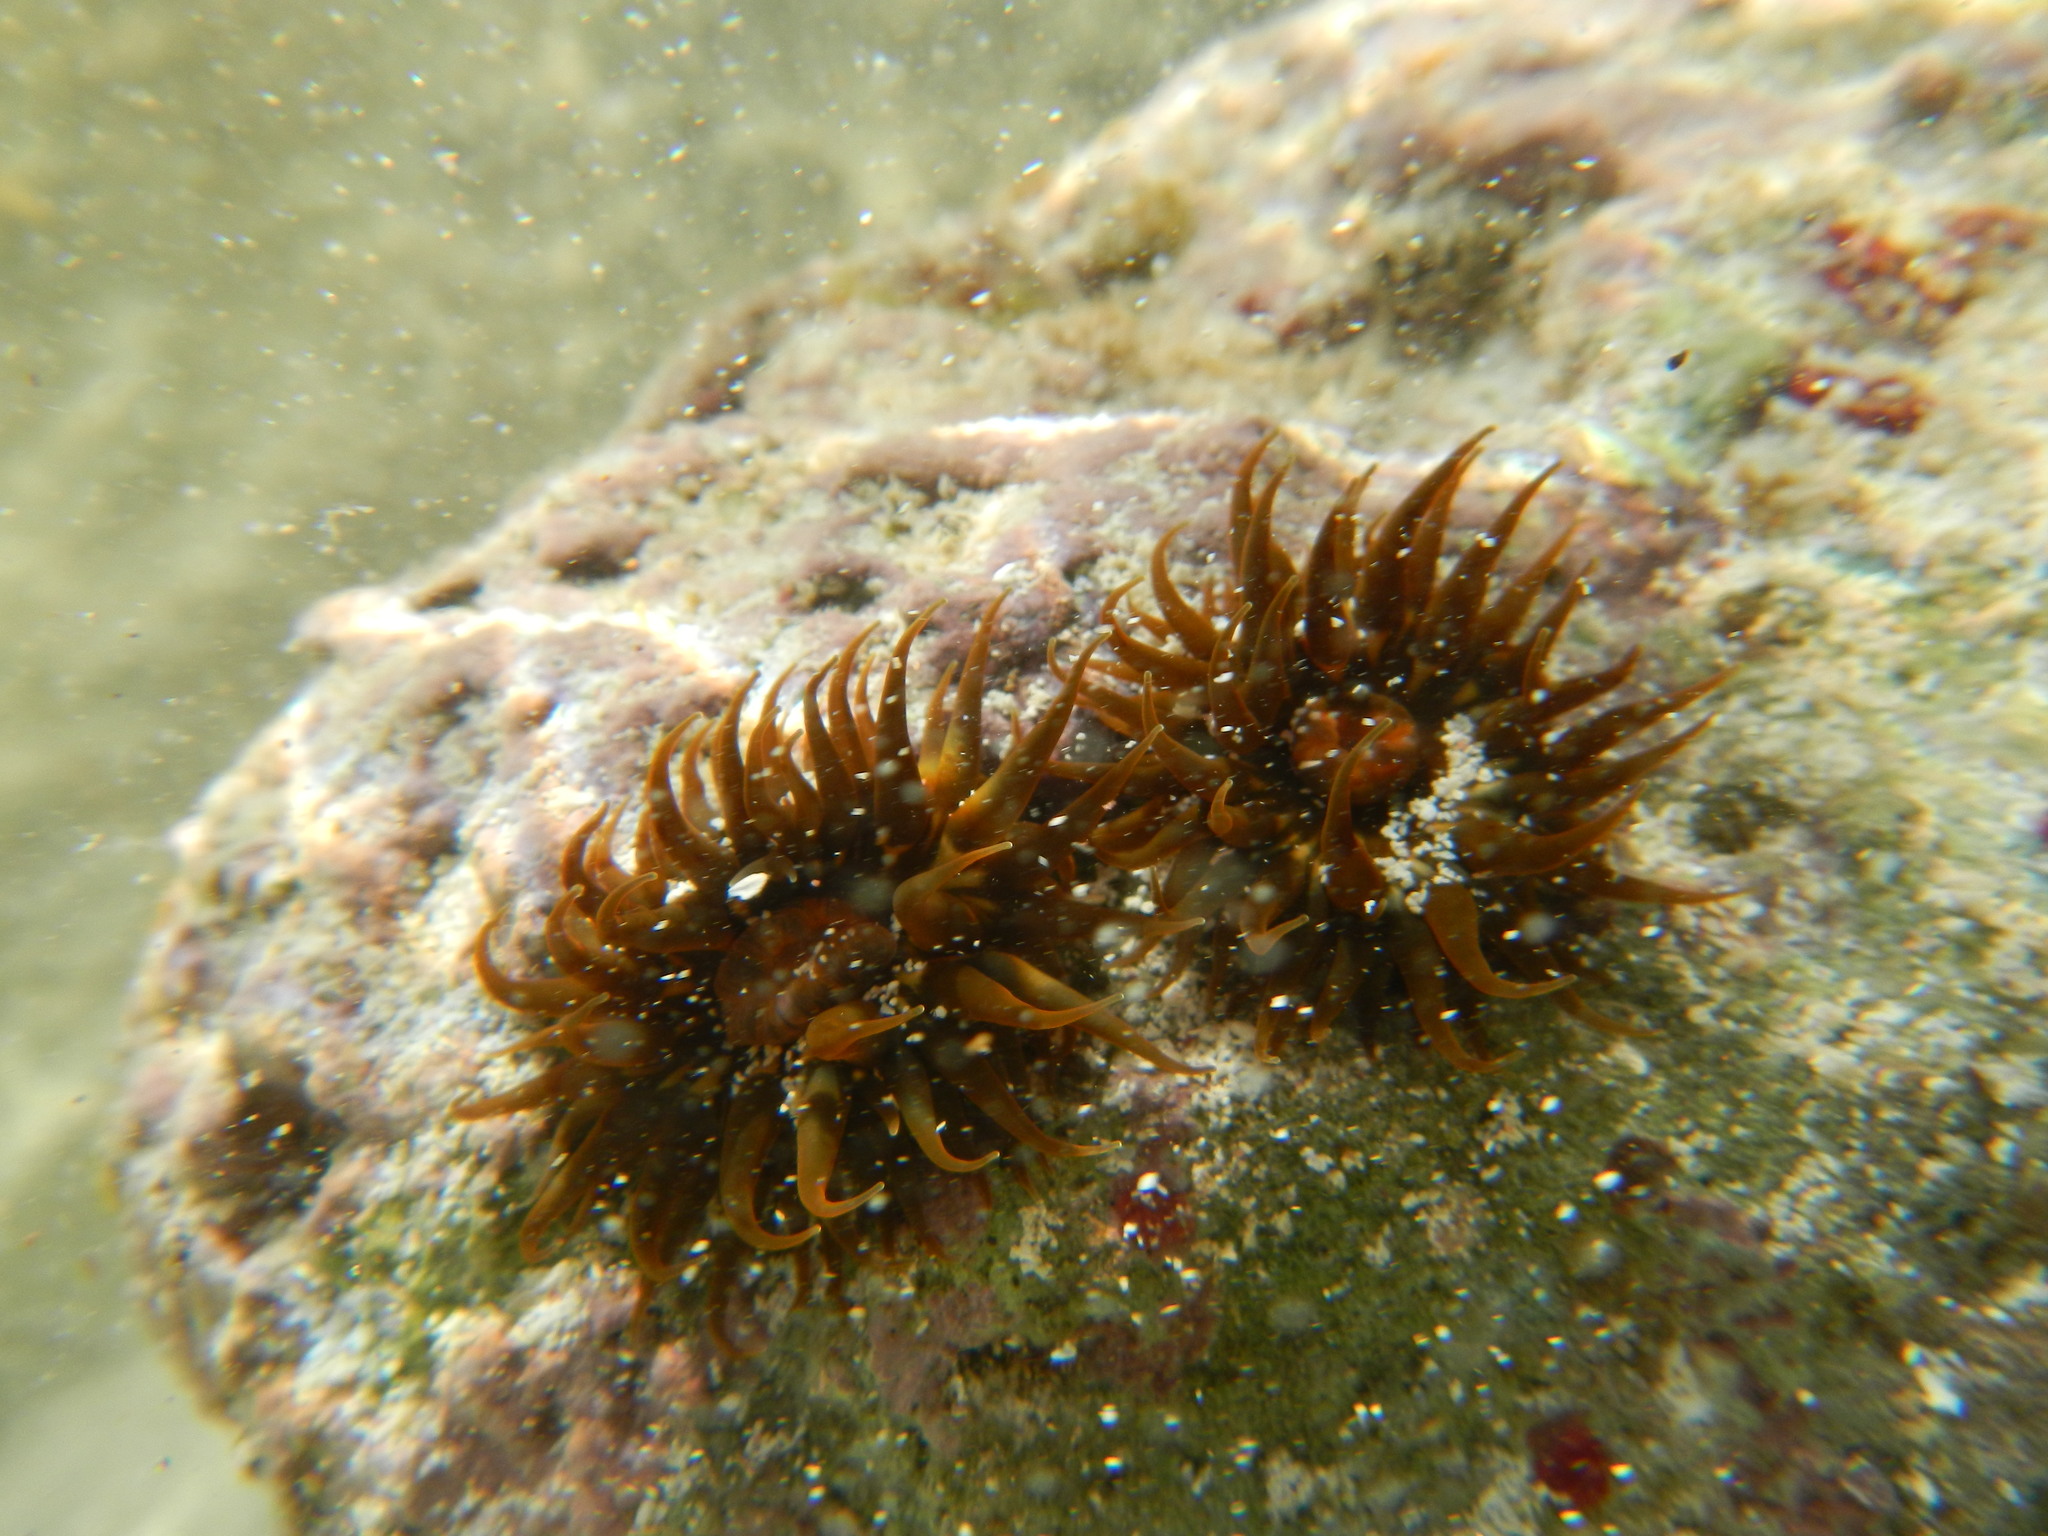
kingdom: Animalia
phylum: Cnidaria
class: Anthozoa
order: Actiniaria
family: Actiniidae
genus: Anemonia
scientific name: Anemonia sargassensis
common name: Sargassum anemone
